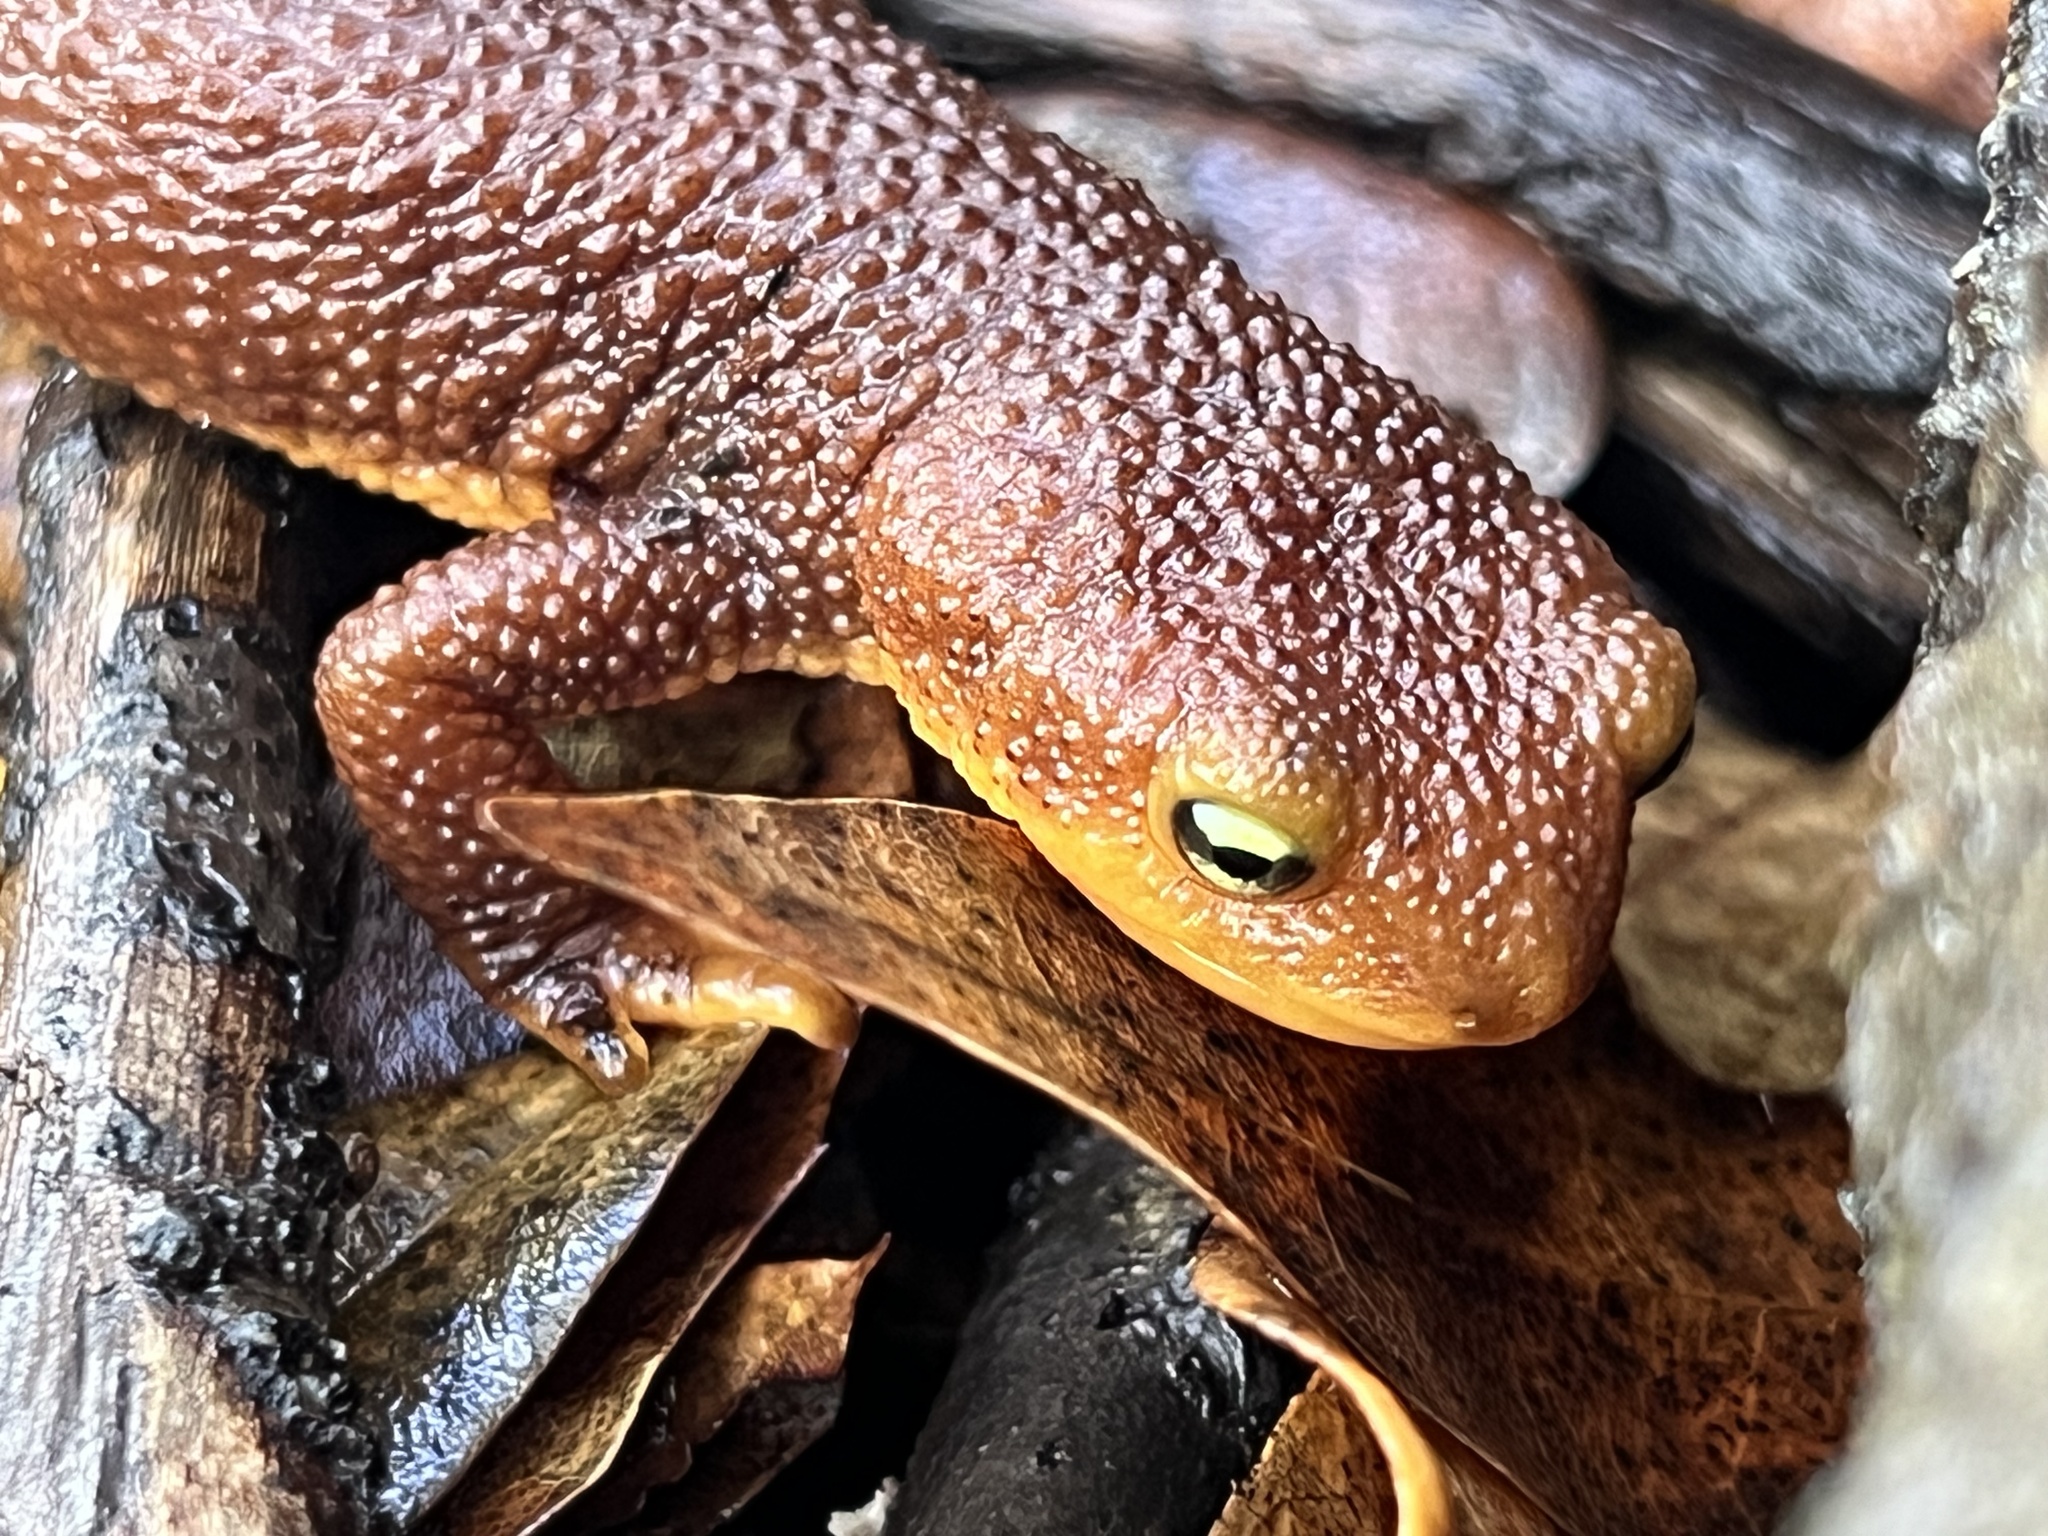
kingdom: Animalia
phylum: Chordata
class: Amphibia
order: Caudata
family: Salamandridae
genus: Taricha
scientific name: Taricha torosa
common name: California newt
